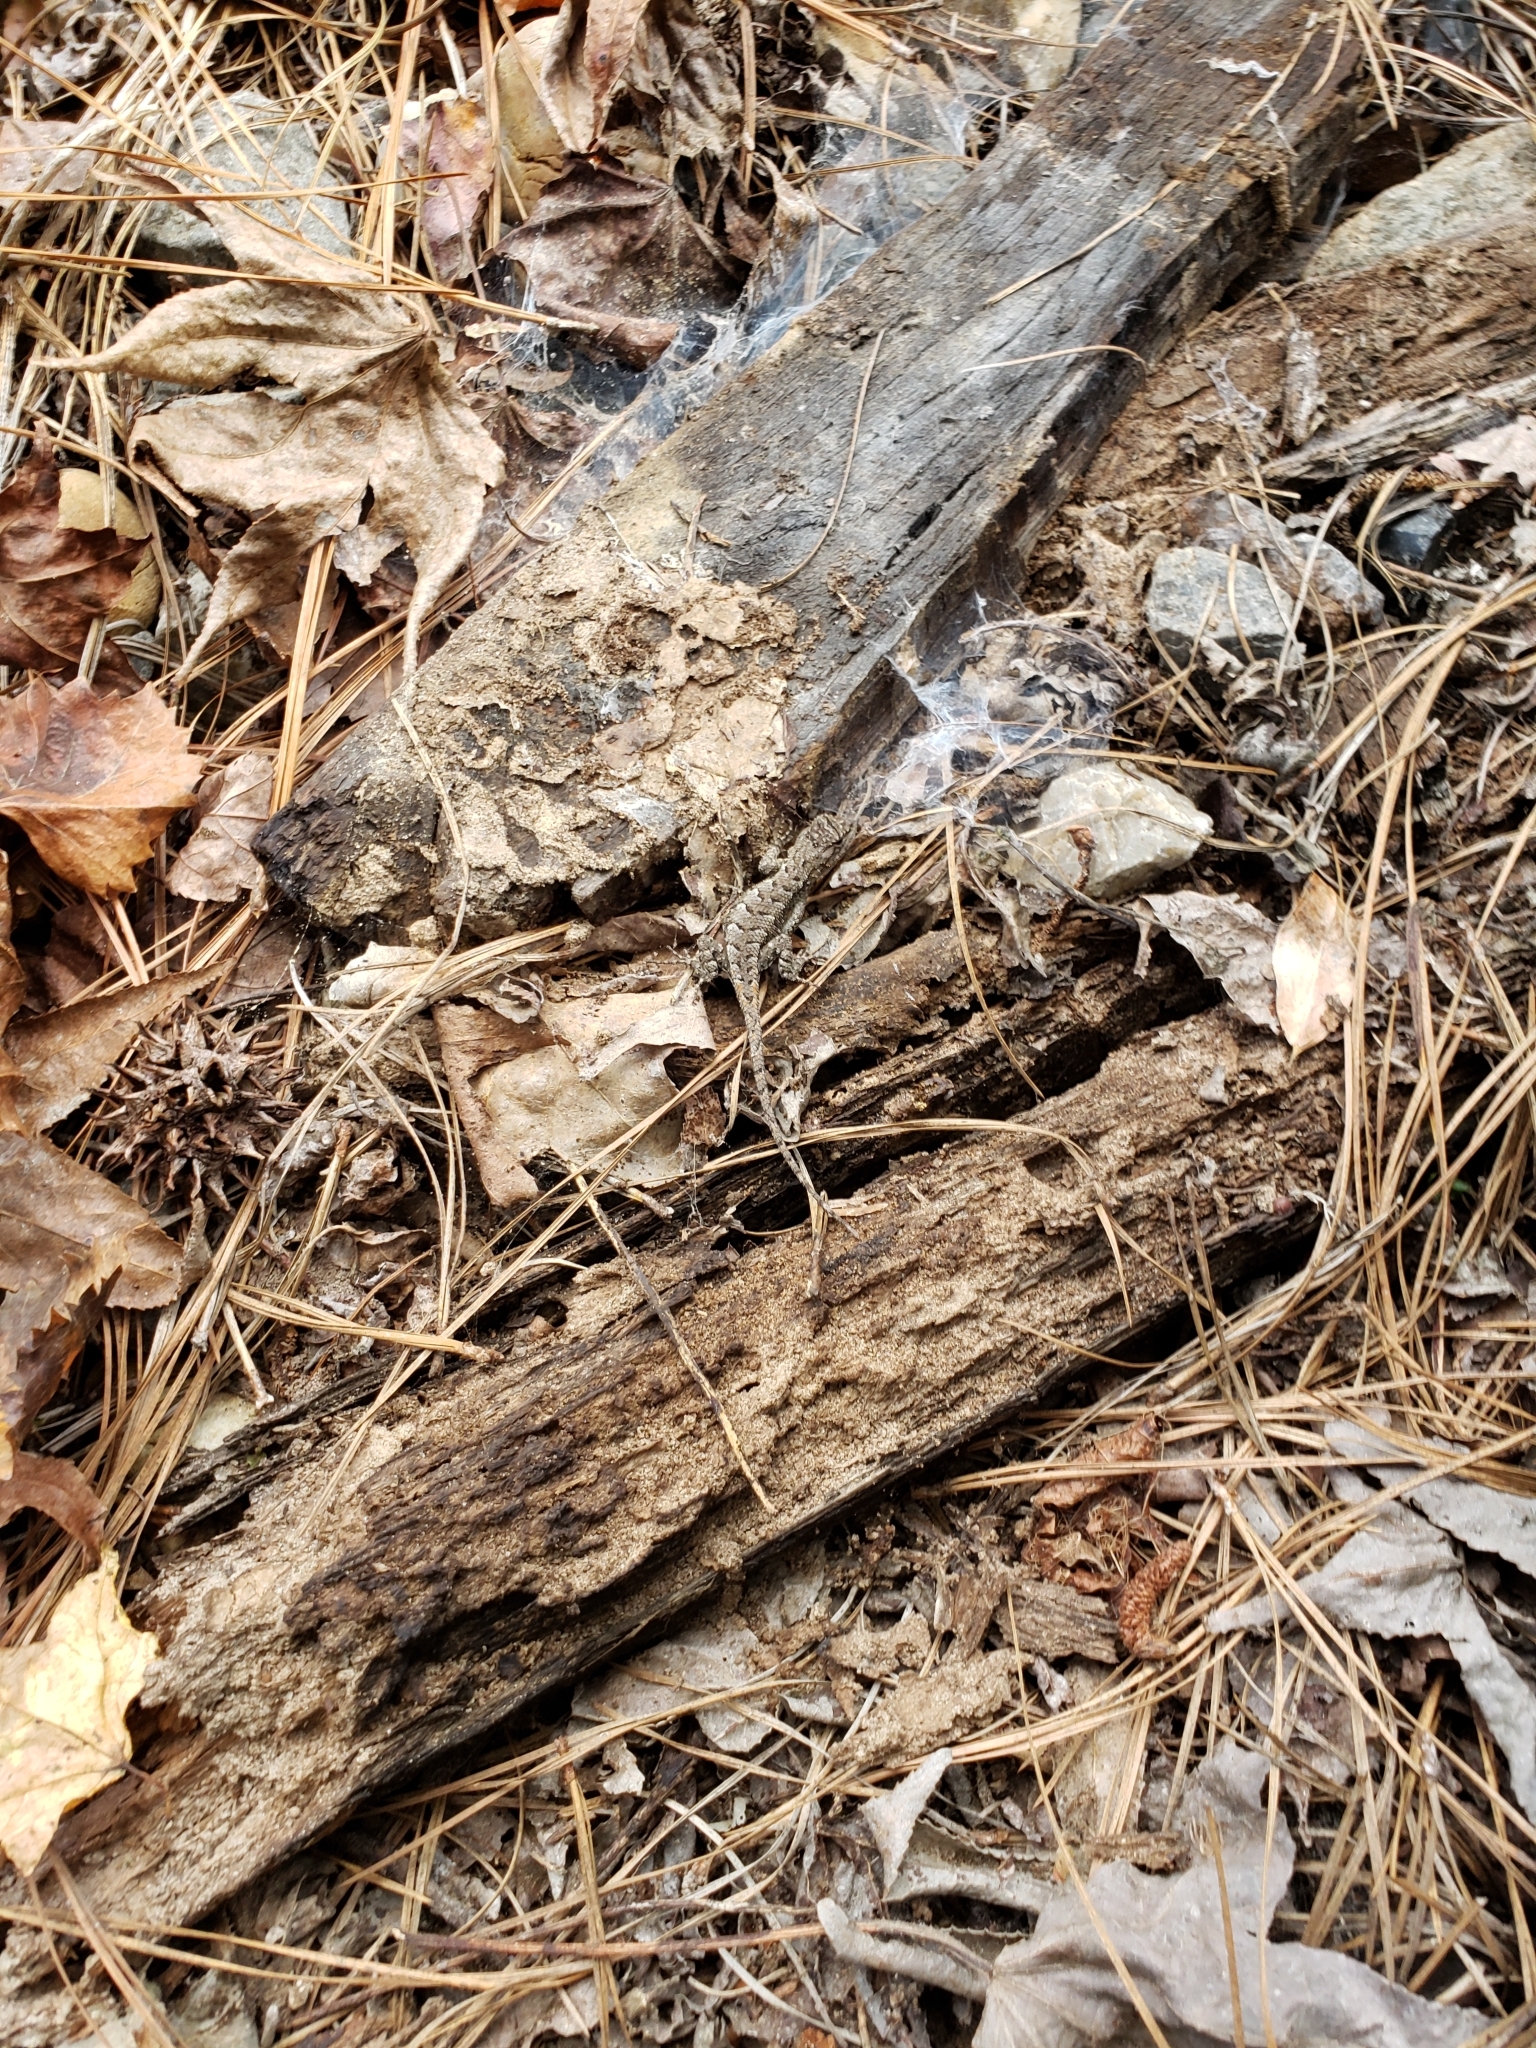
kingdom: Animalia
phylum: Chordata
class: Squamata
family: Phrynosomatidae
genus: Sceloporus
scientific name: Sceloporus consobrinus
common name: Southern prairie lizard
